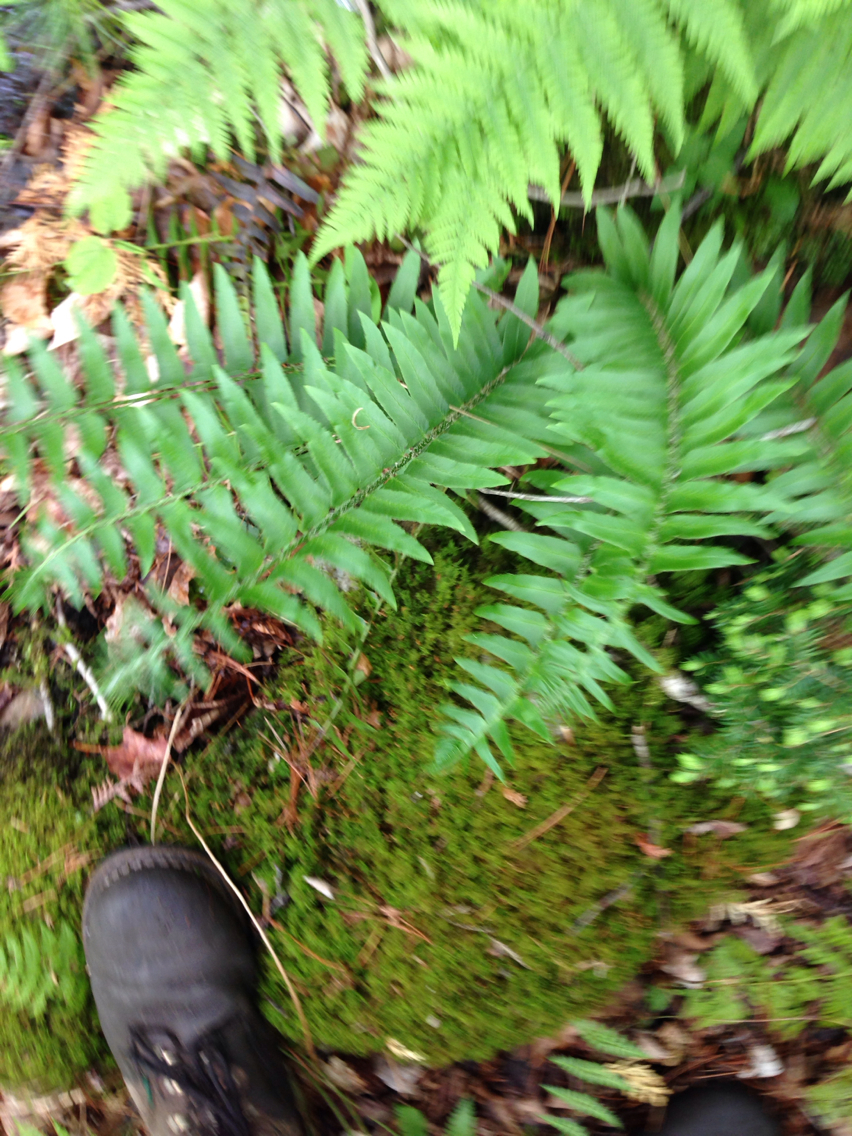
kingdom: Plantae
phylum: Tracheophyta
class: Polypodiopsida
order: Polypodiales
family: Dryopteridaceae
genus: Polystichum
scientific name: Polystichum acrostichoides
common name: Christmas fern
